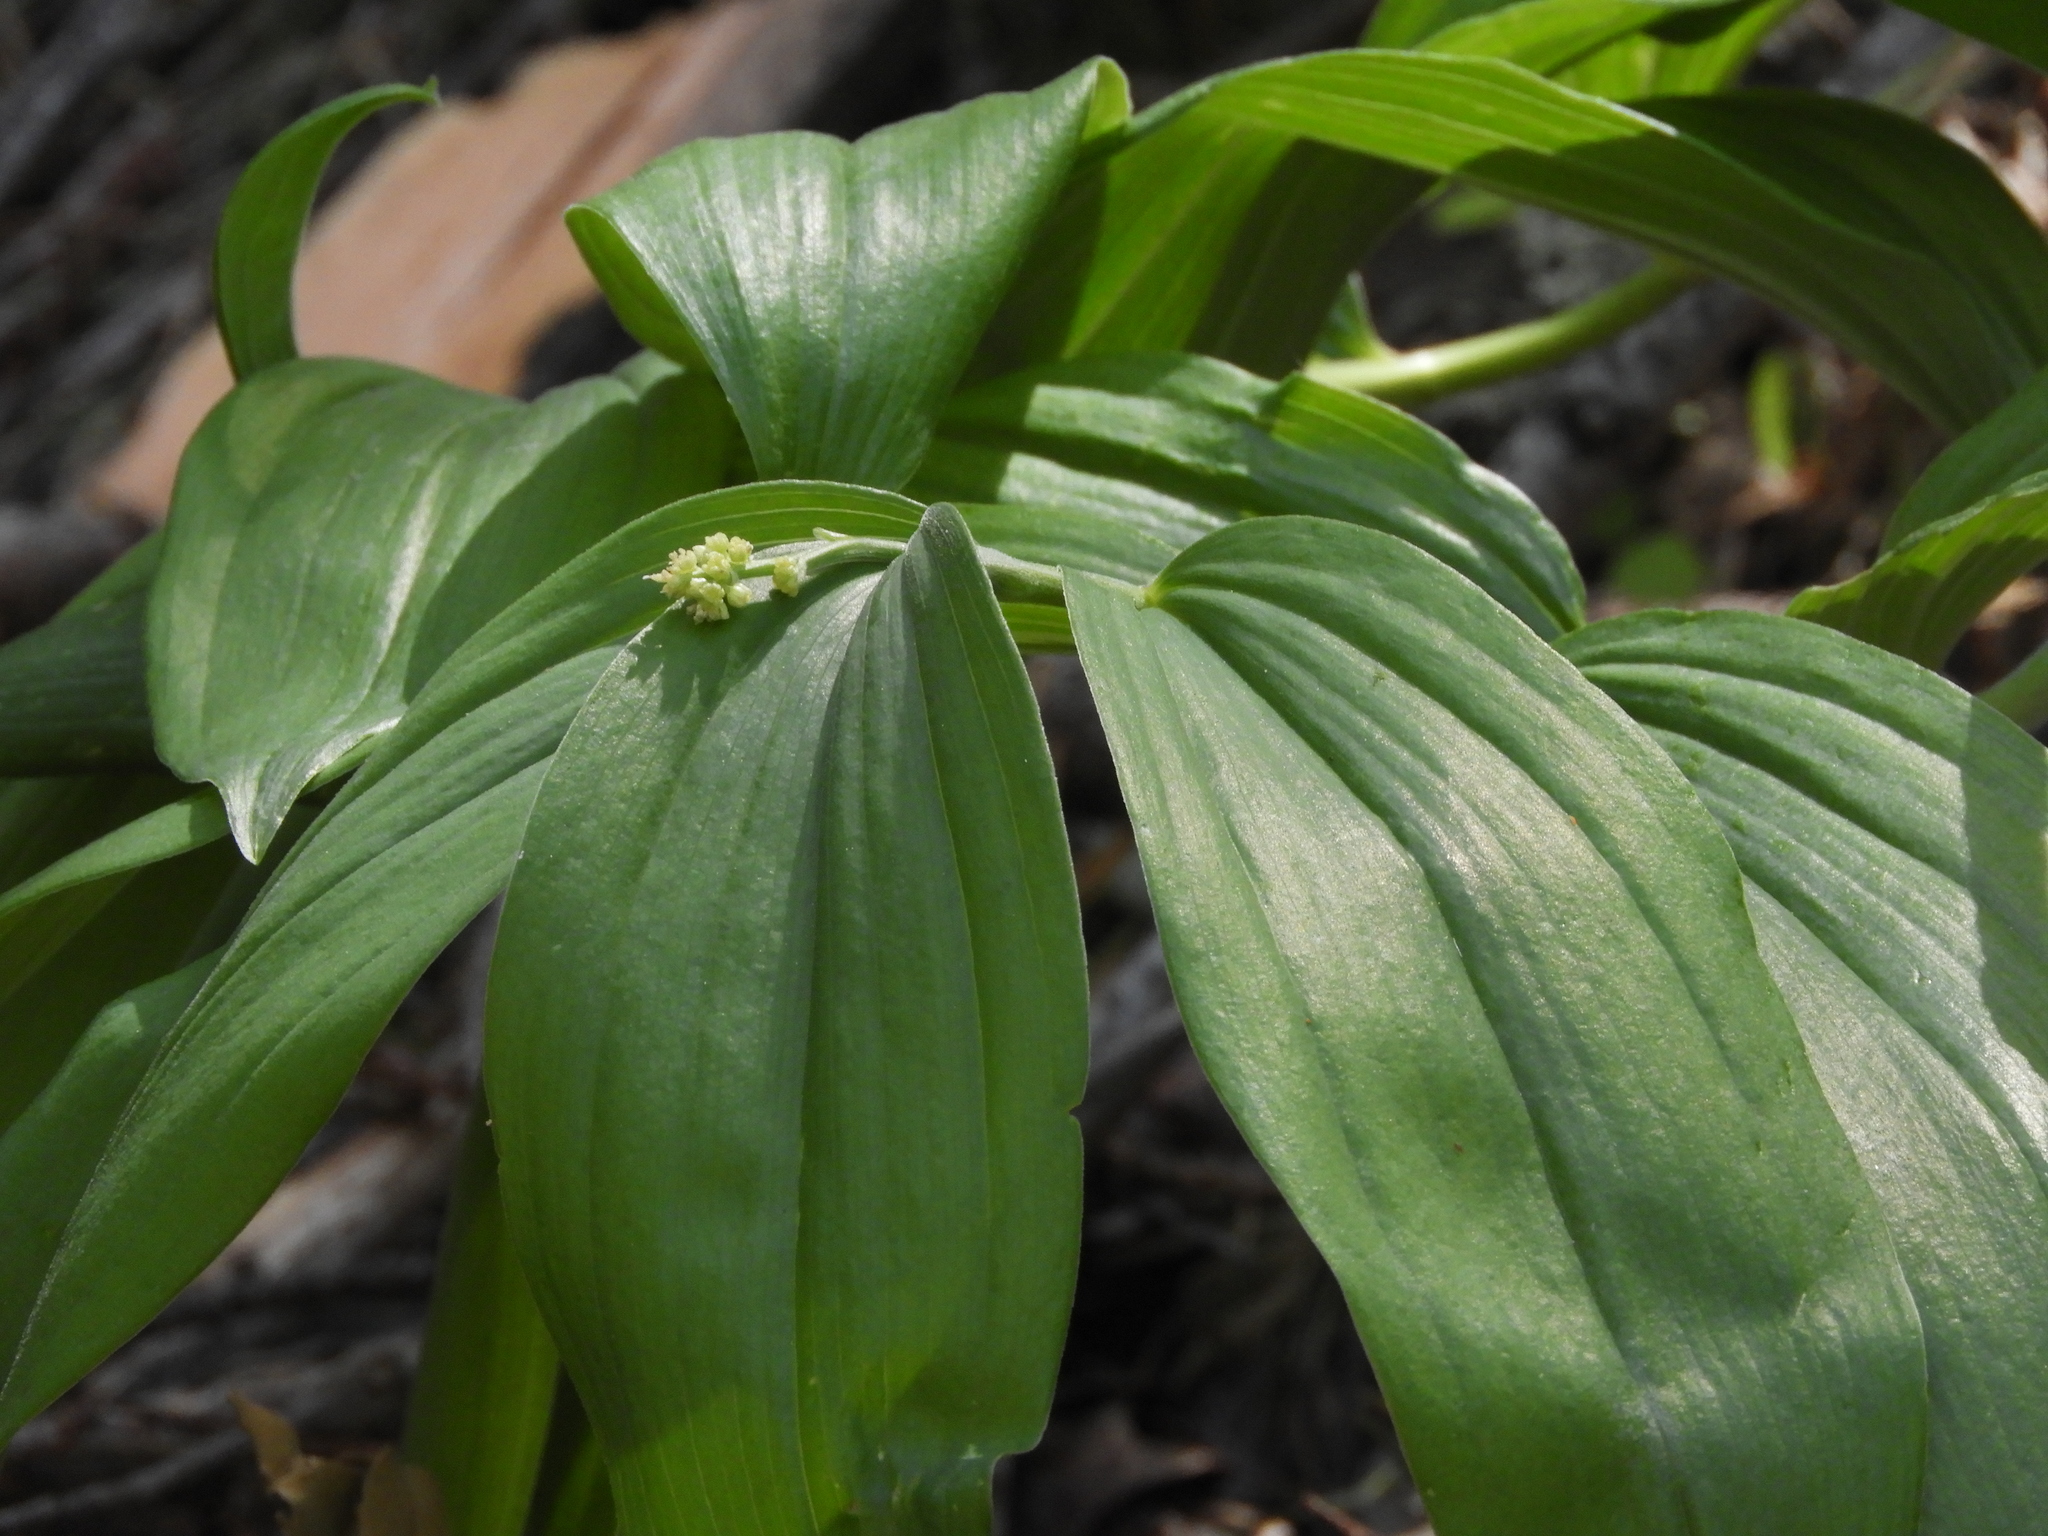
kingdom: Plantae
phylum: Tracheophyta
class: Liliopsida
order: Asparagales
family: Asparagaceae
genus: Maianthemum
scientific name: Maianthemum racemosum
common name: False spikenard
